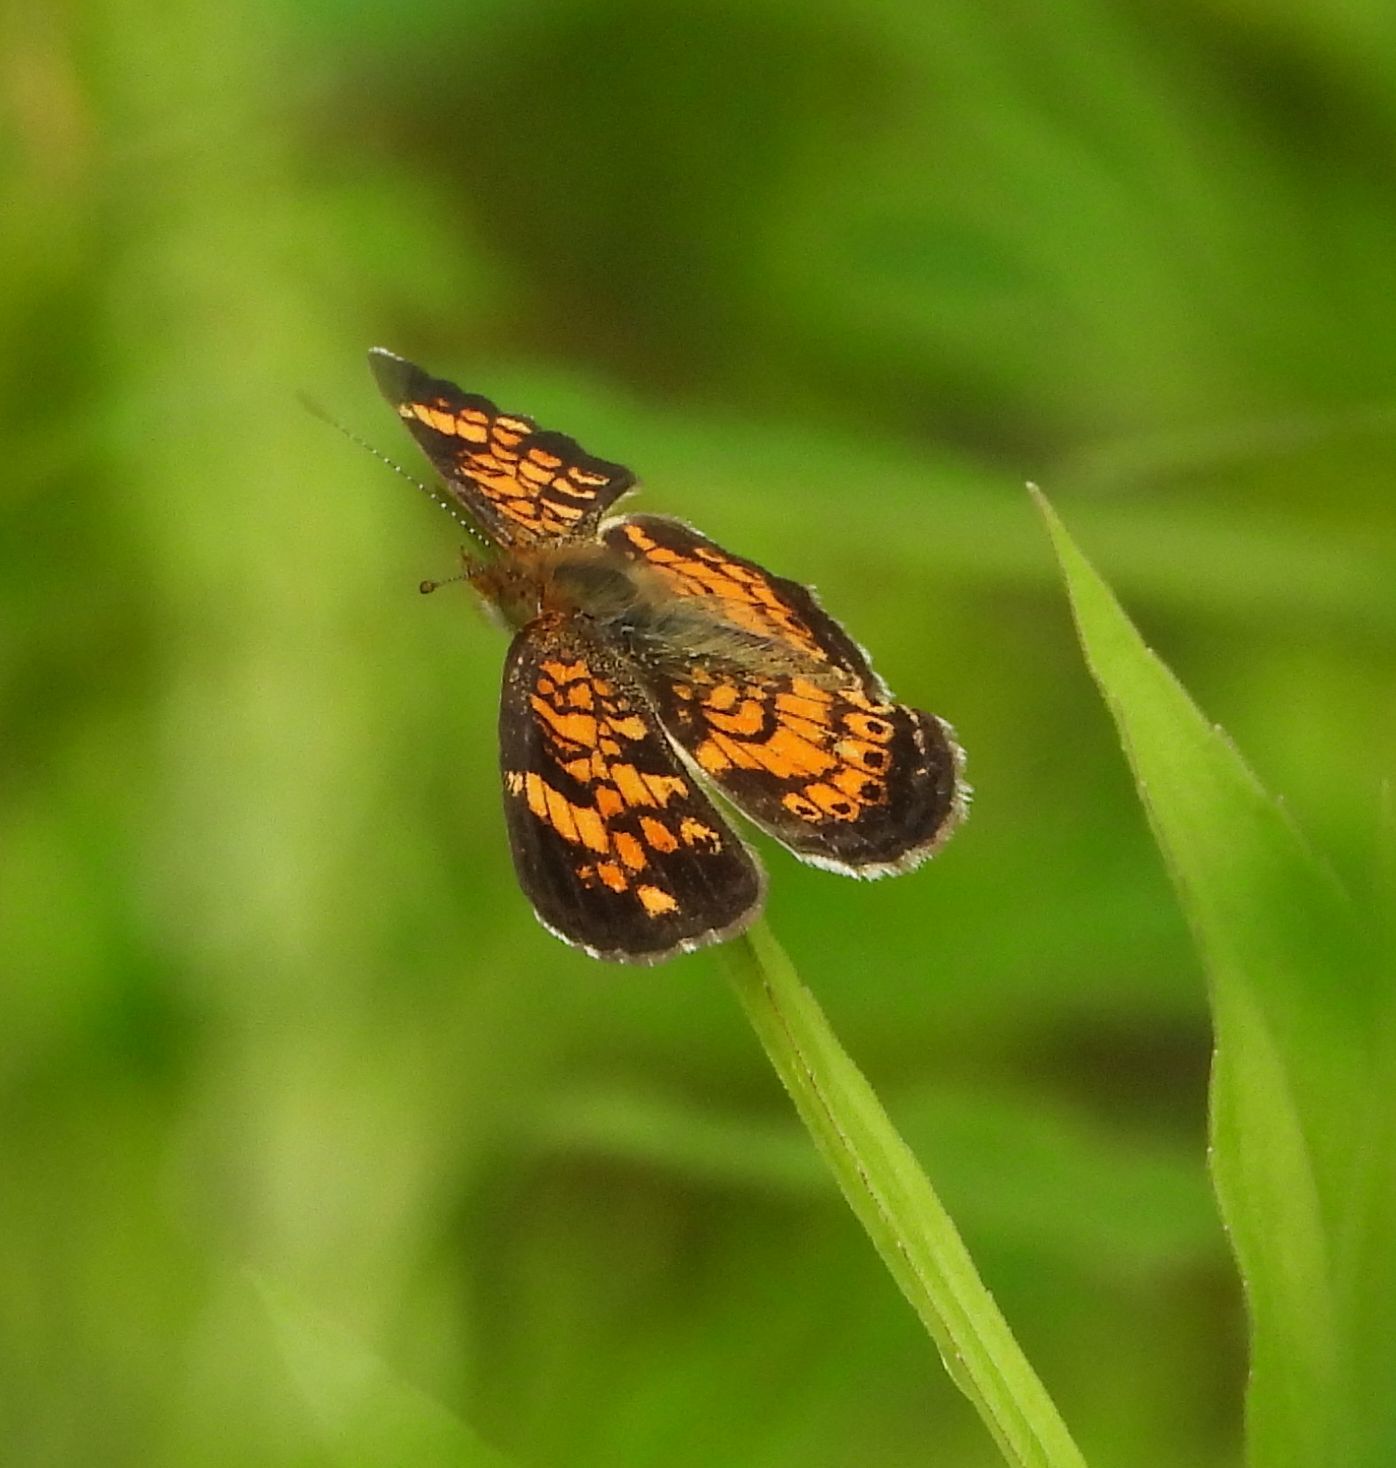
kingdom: Animalia
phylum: Arthropoda
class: Insecta
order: Lepidoptera
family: Nymphalidae
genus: Phyciodes
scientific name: Phyciodes tharos
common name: Pearl crescent
